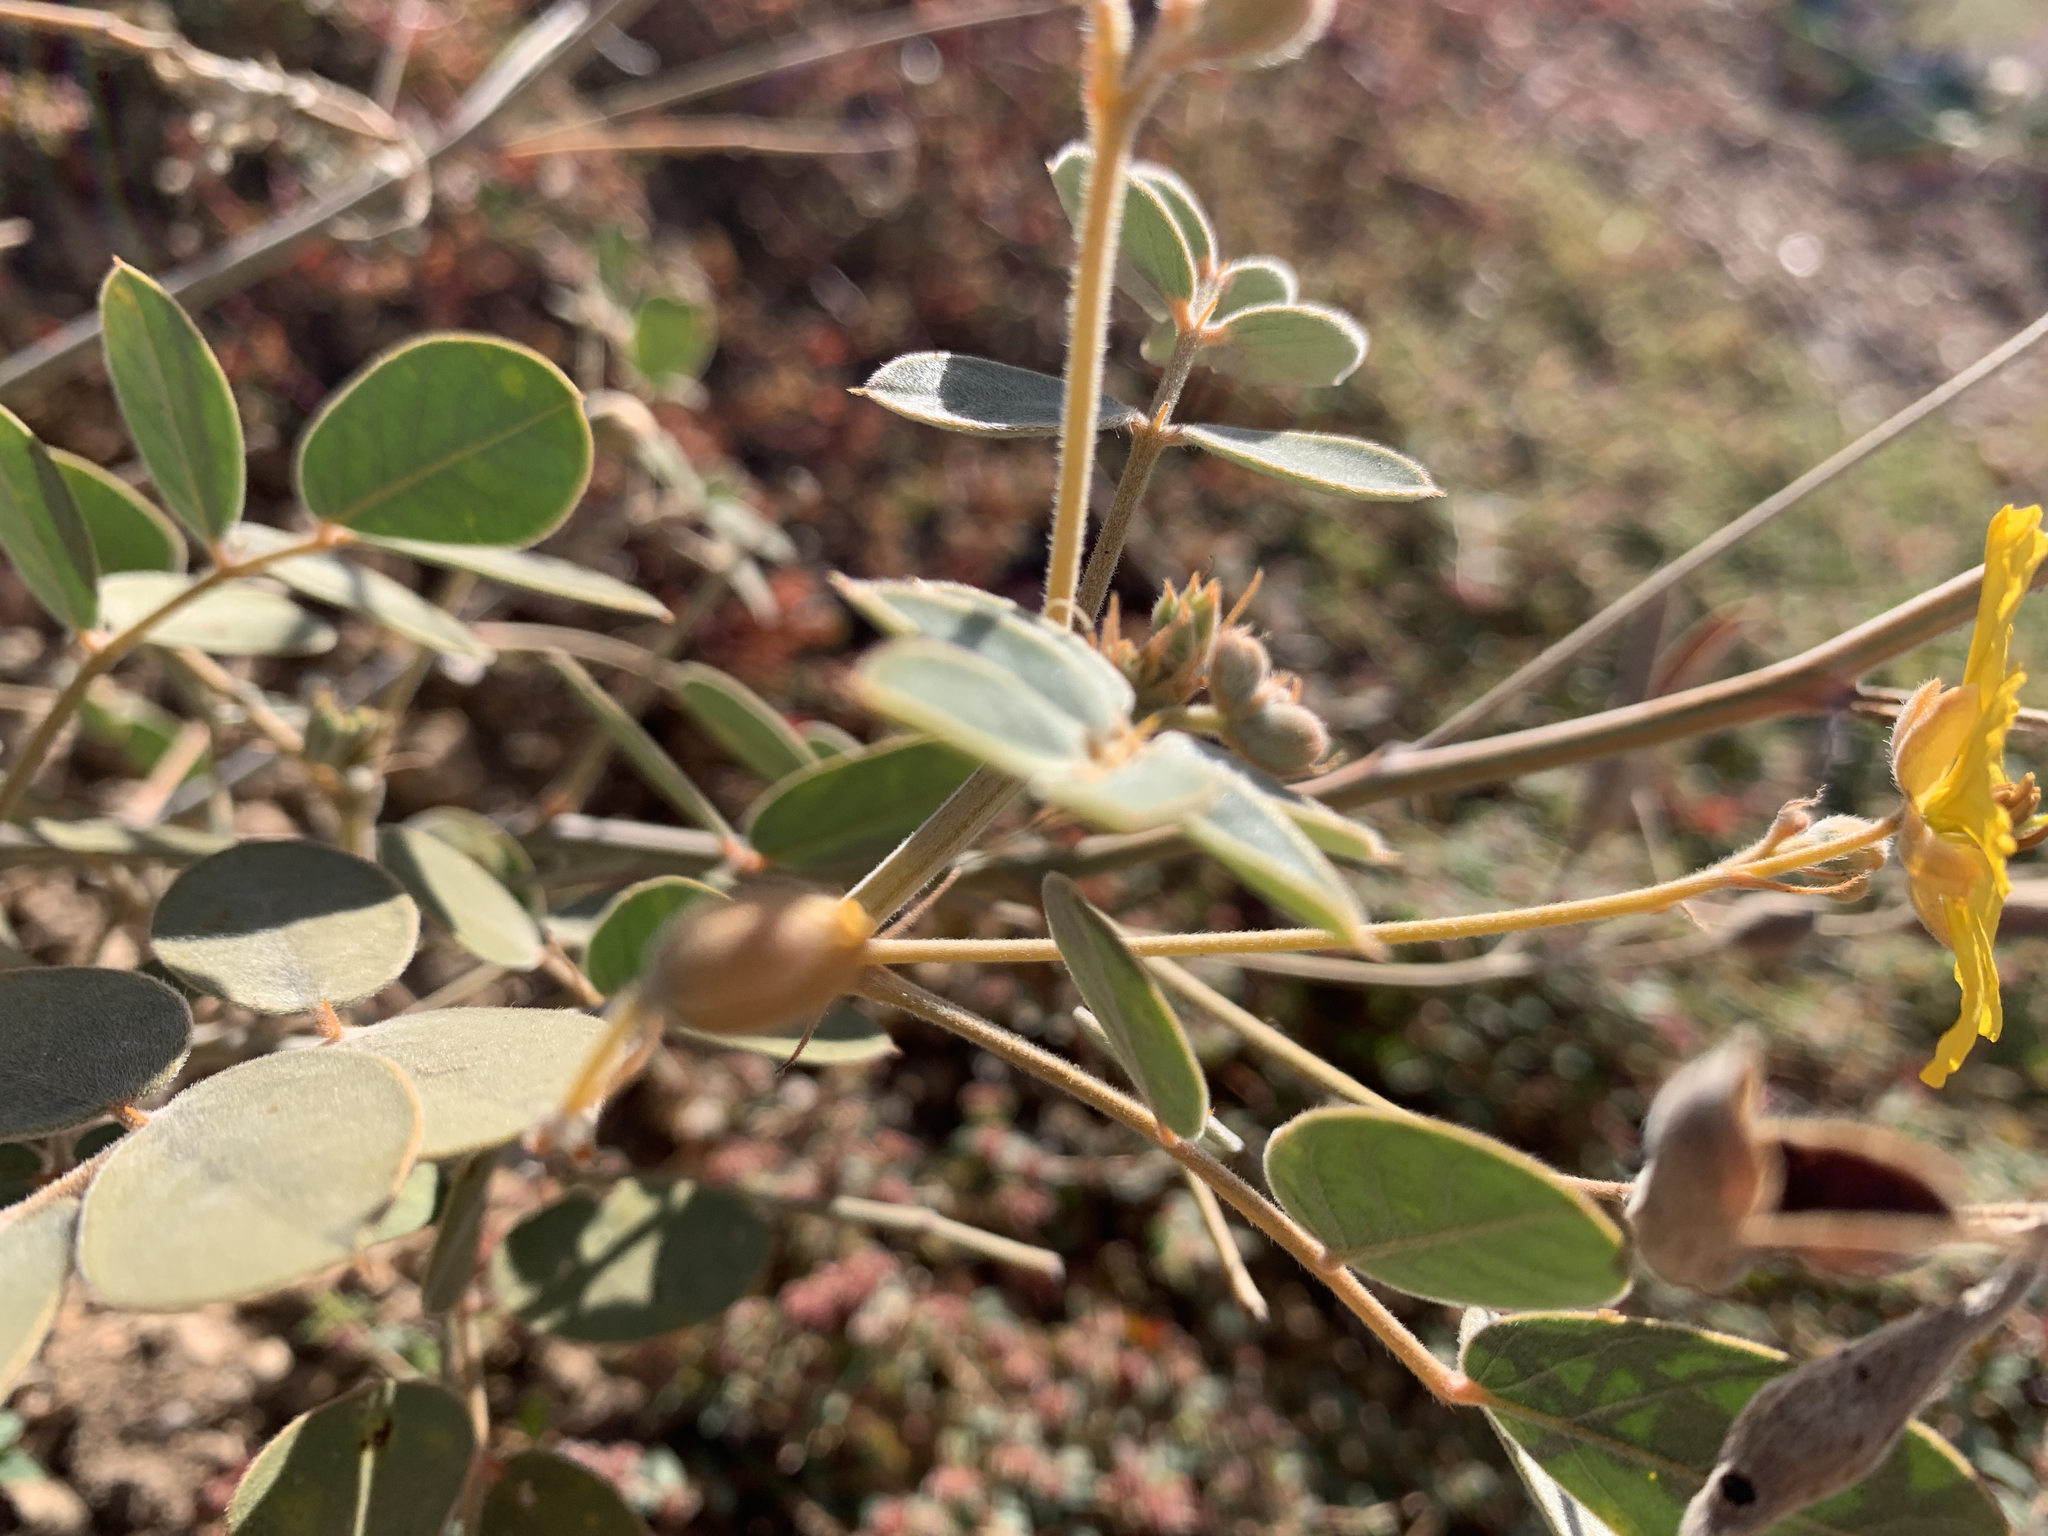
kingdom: Plantae
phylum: Tracheophyta
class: Magnoliopsida
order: Fabales
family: Fabaceae
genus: Senna
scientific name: Senna covesii
